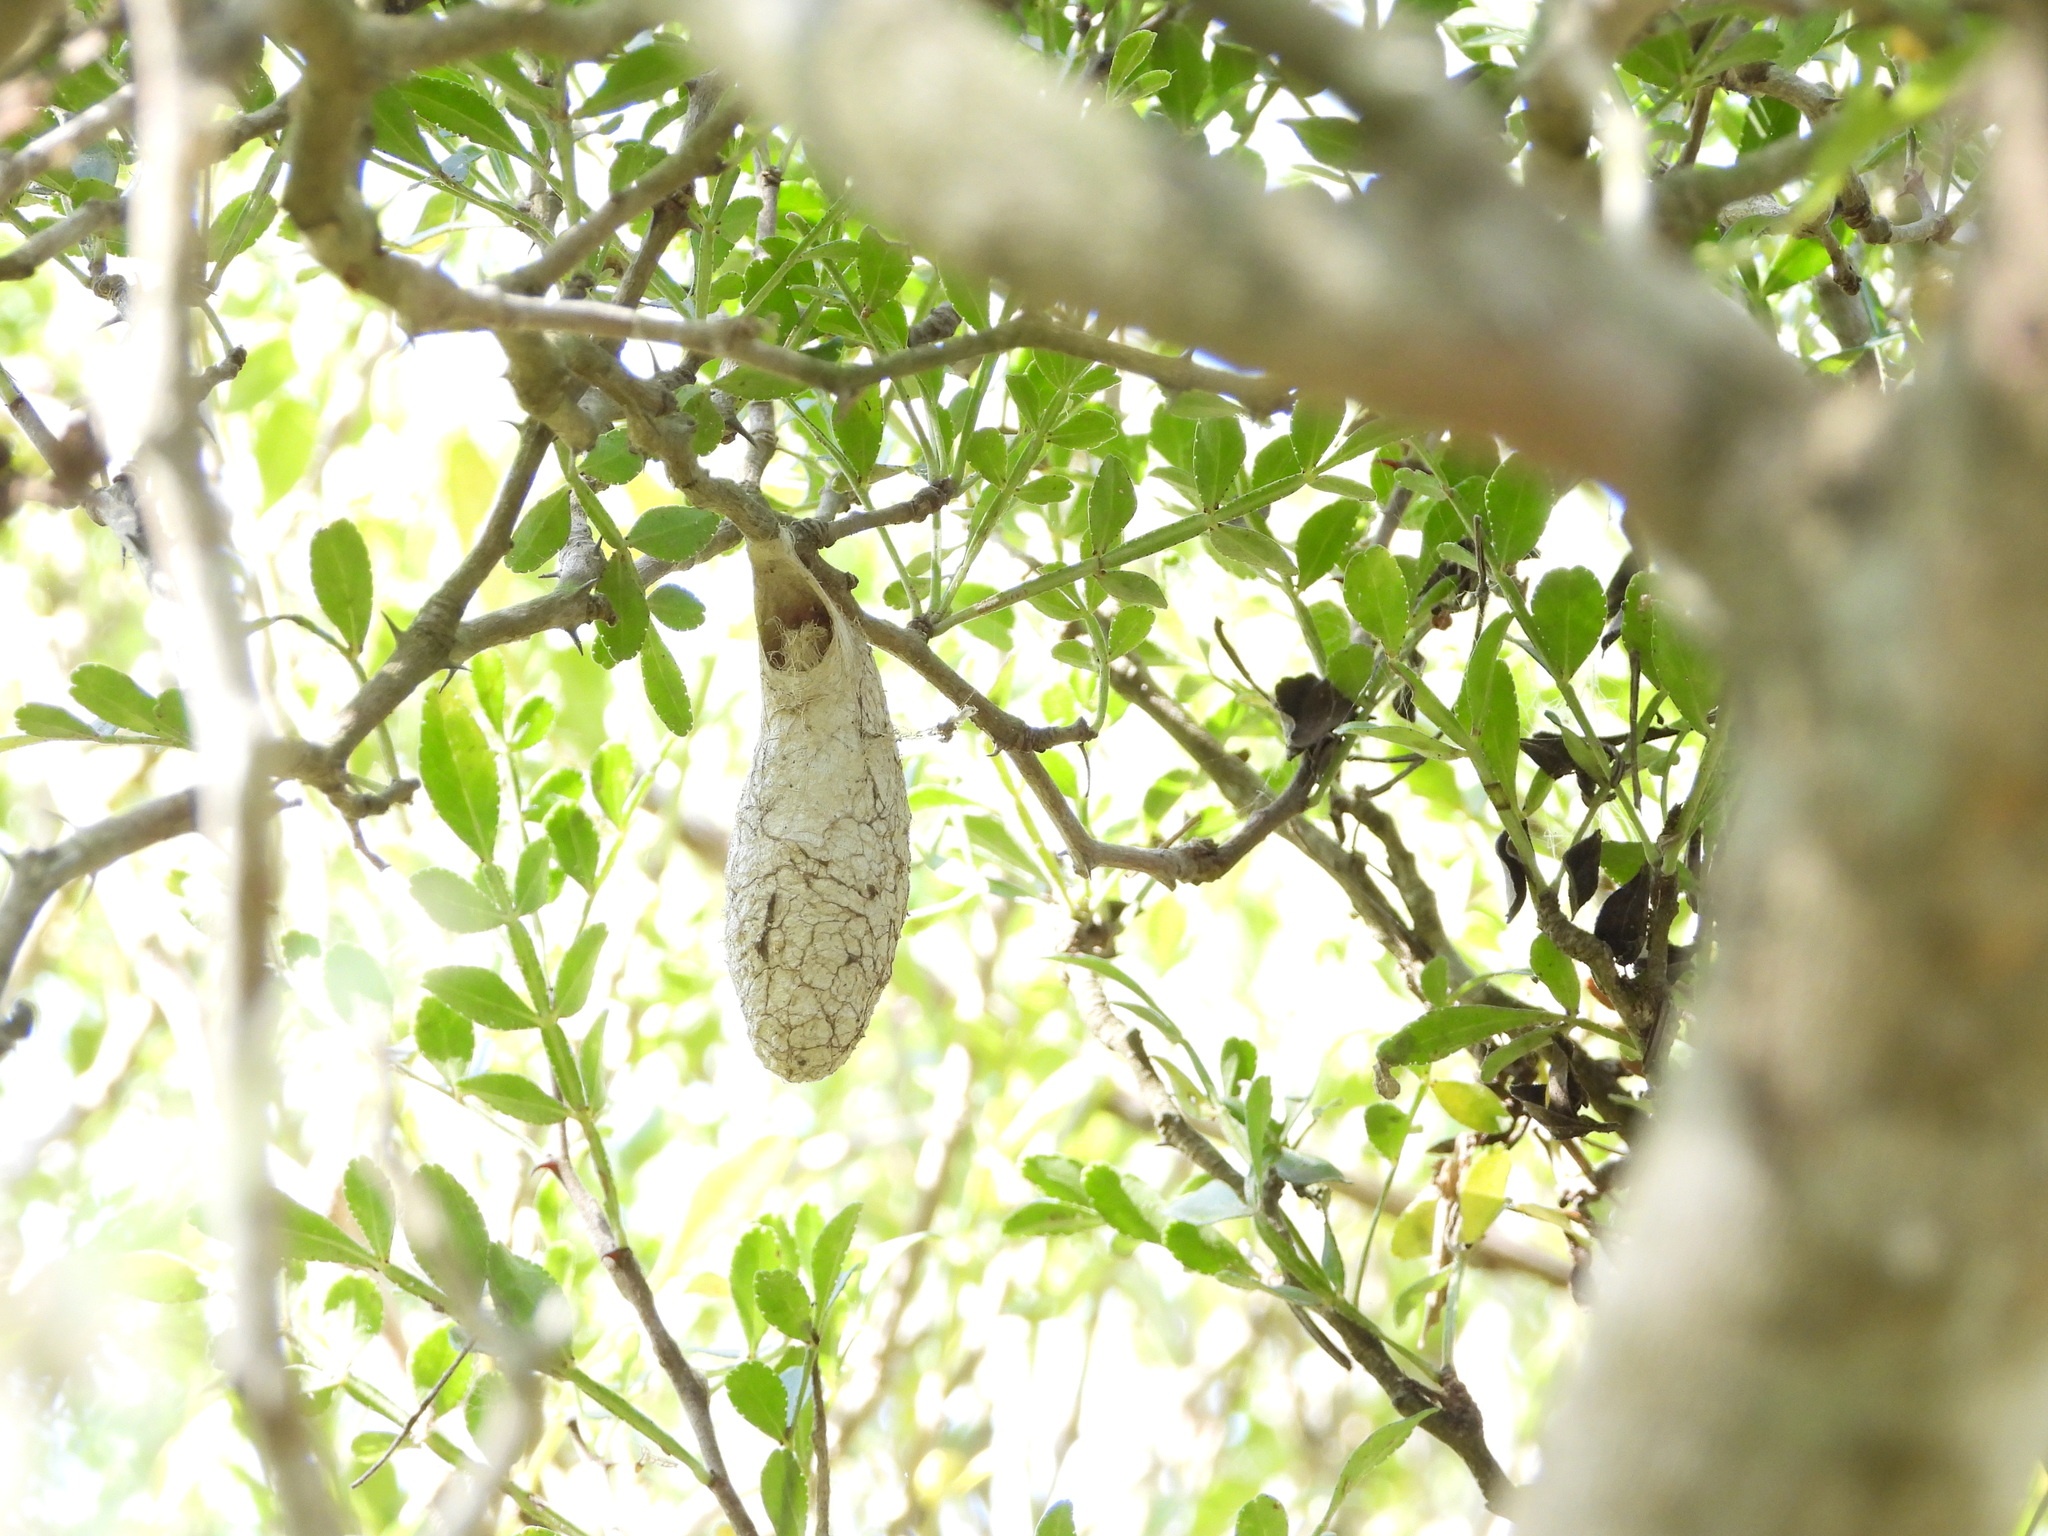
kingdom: Animalia
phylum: Arthropoda
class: Insecta
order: Lepidoptera
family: Saturniidae
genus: Rothschildia
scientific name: Rothschildia lebeau
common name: Lebeau's rothschildia
